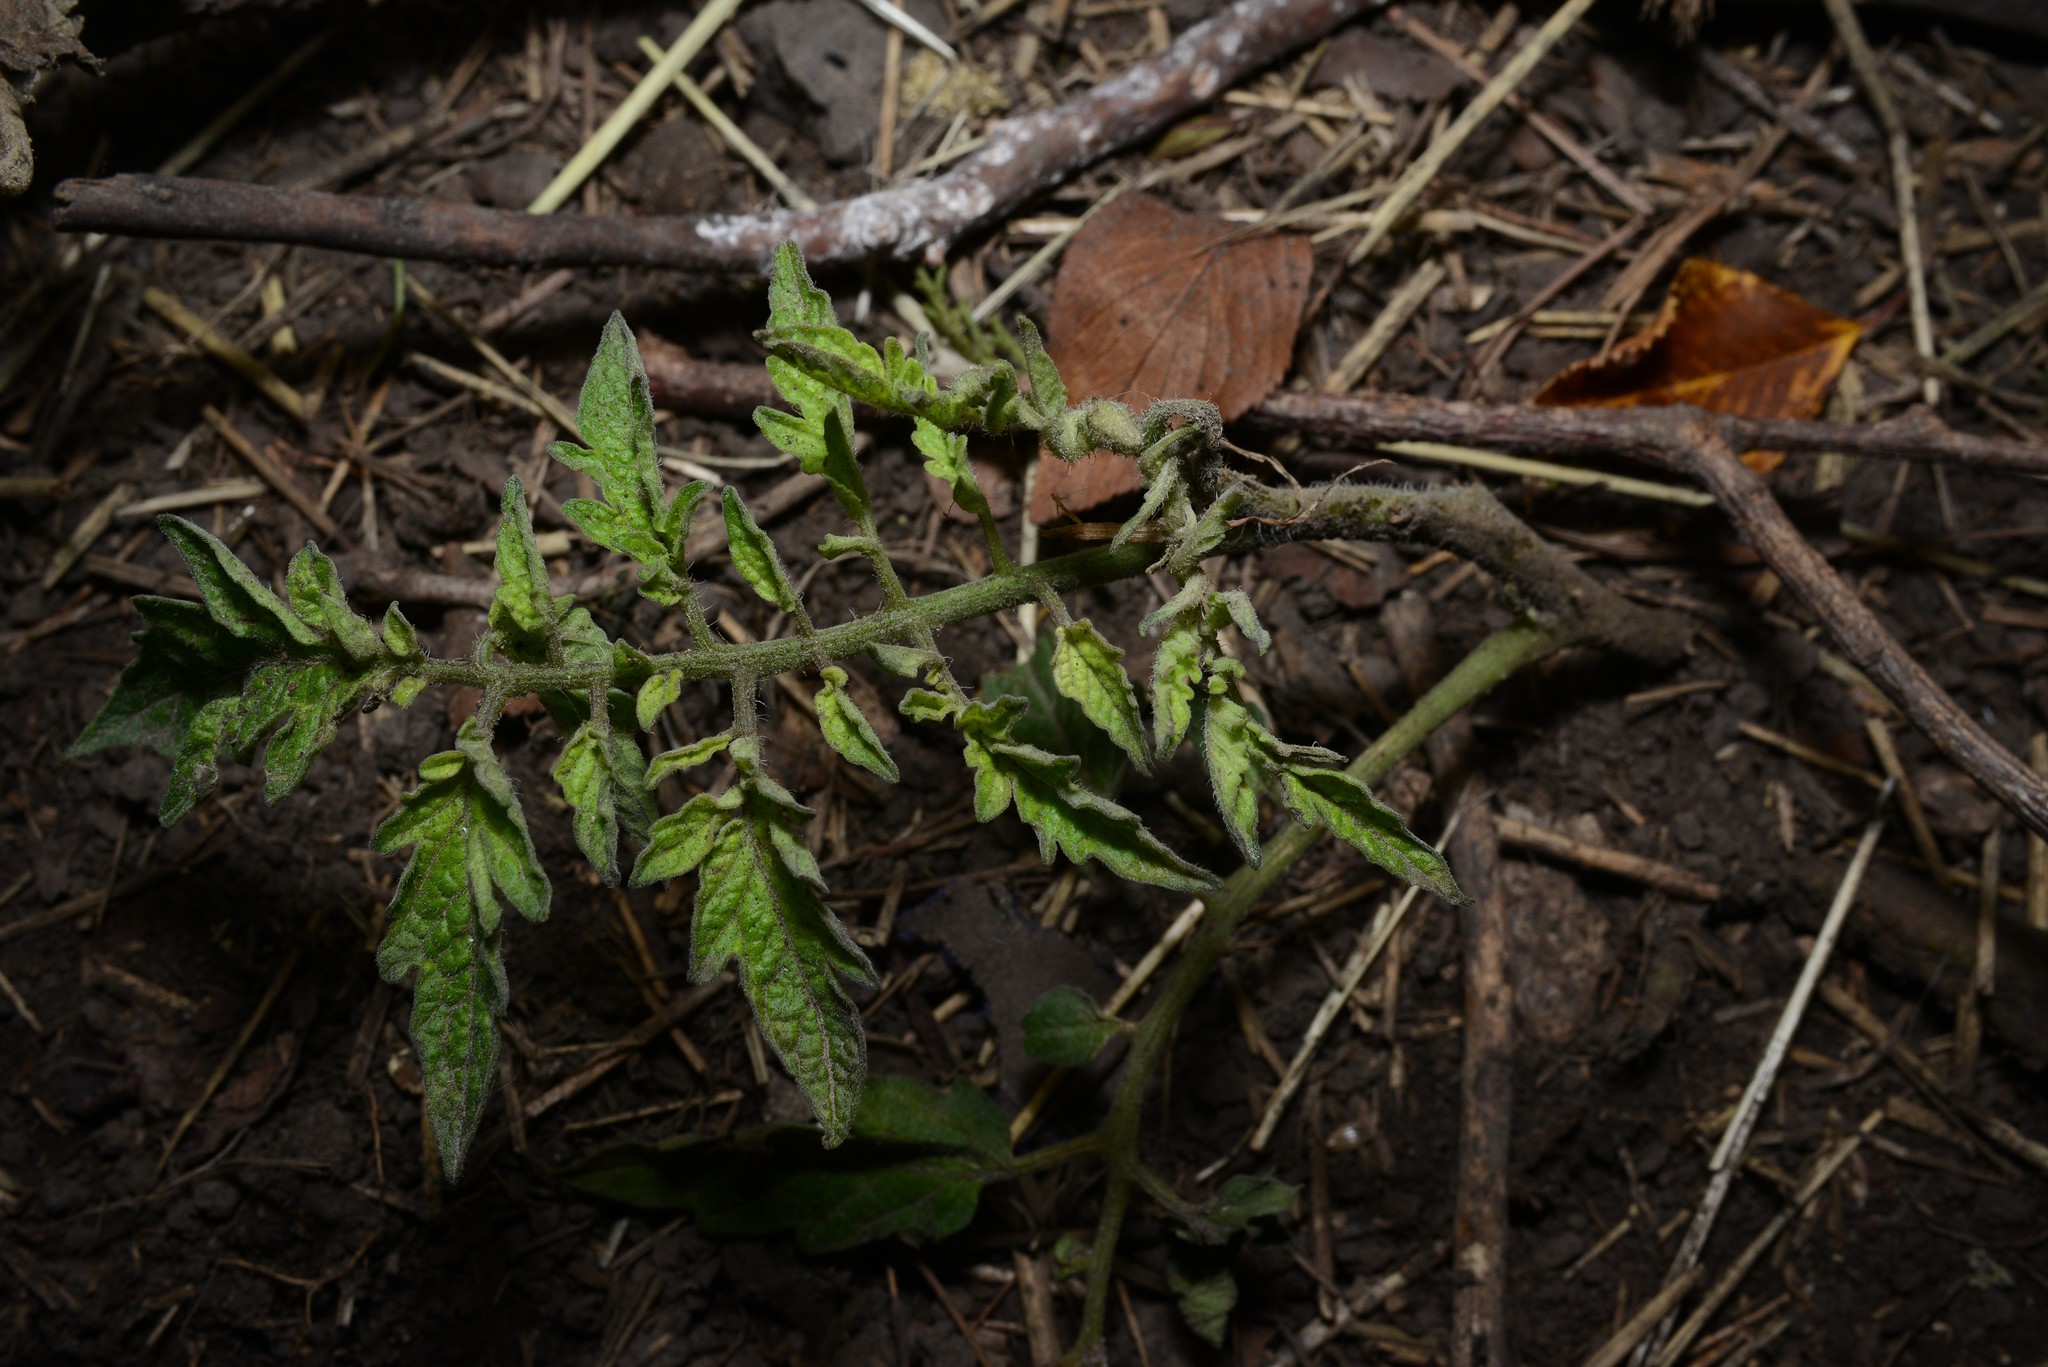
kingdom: Plantae
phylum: Tracheophyta
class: Magnoliopsida
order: Solanales
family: Solanaceae
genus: Solanum
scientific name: Solanum lycopersicum
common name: Garden tomato
